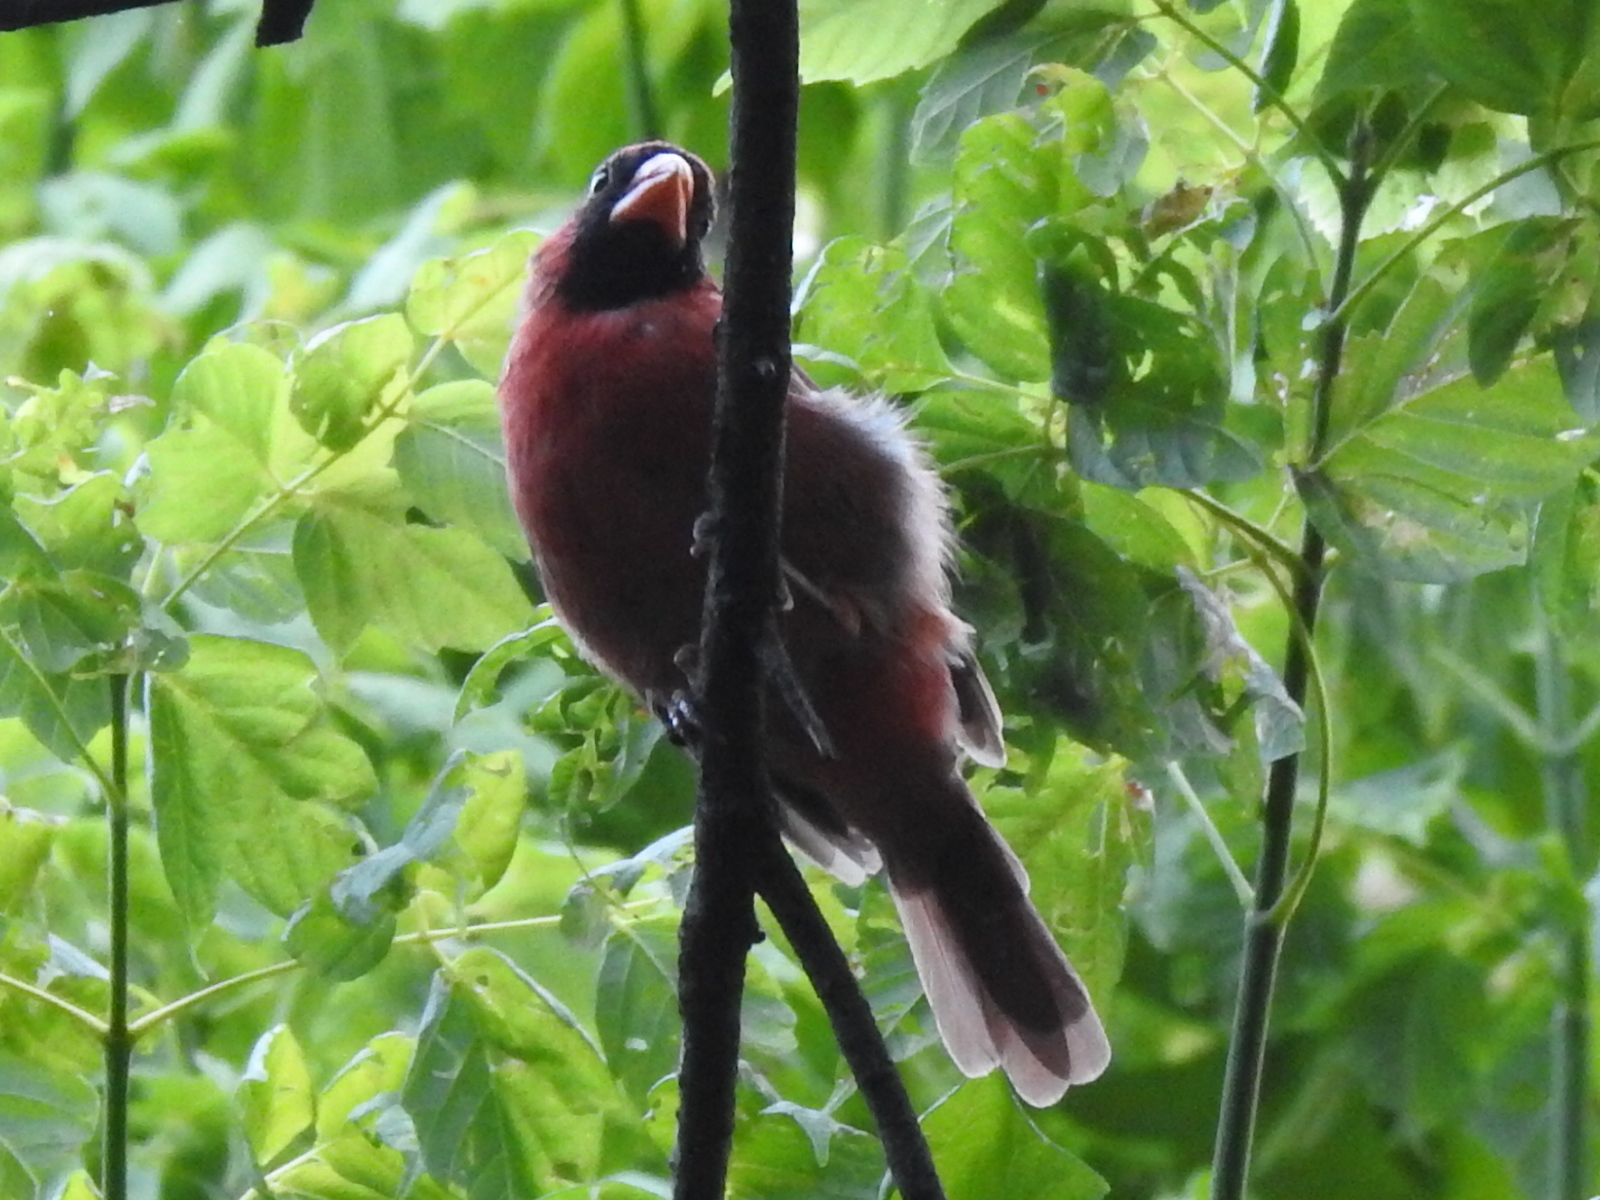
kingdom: Animalia
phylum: Chordata
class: Aves
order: Passeriformes
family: Cardinalidae
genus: Cardinalis
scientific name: Cardinalis cardinalis
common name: Northern cardinal
